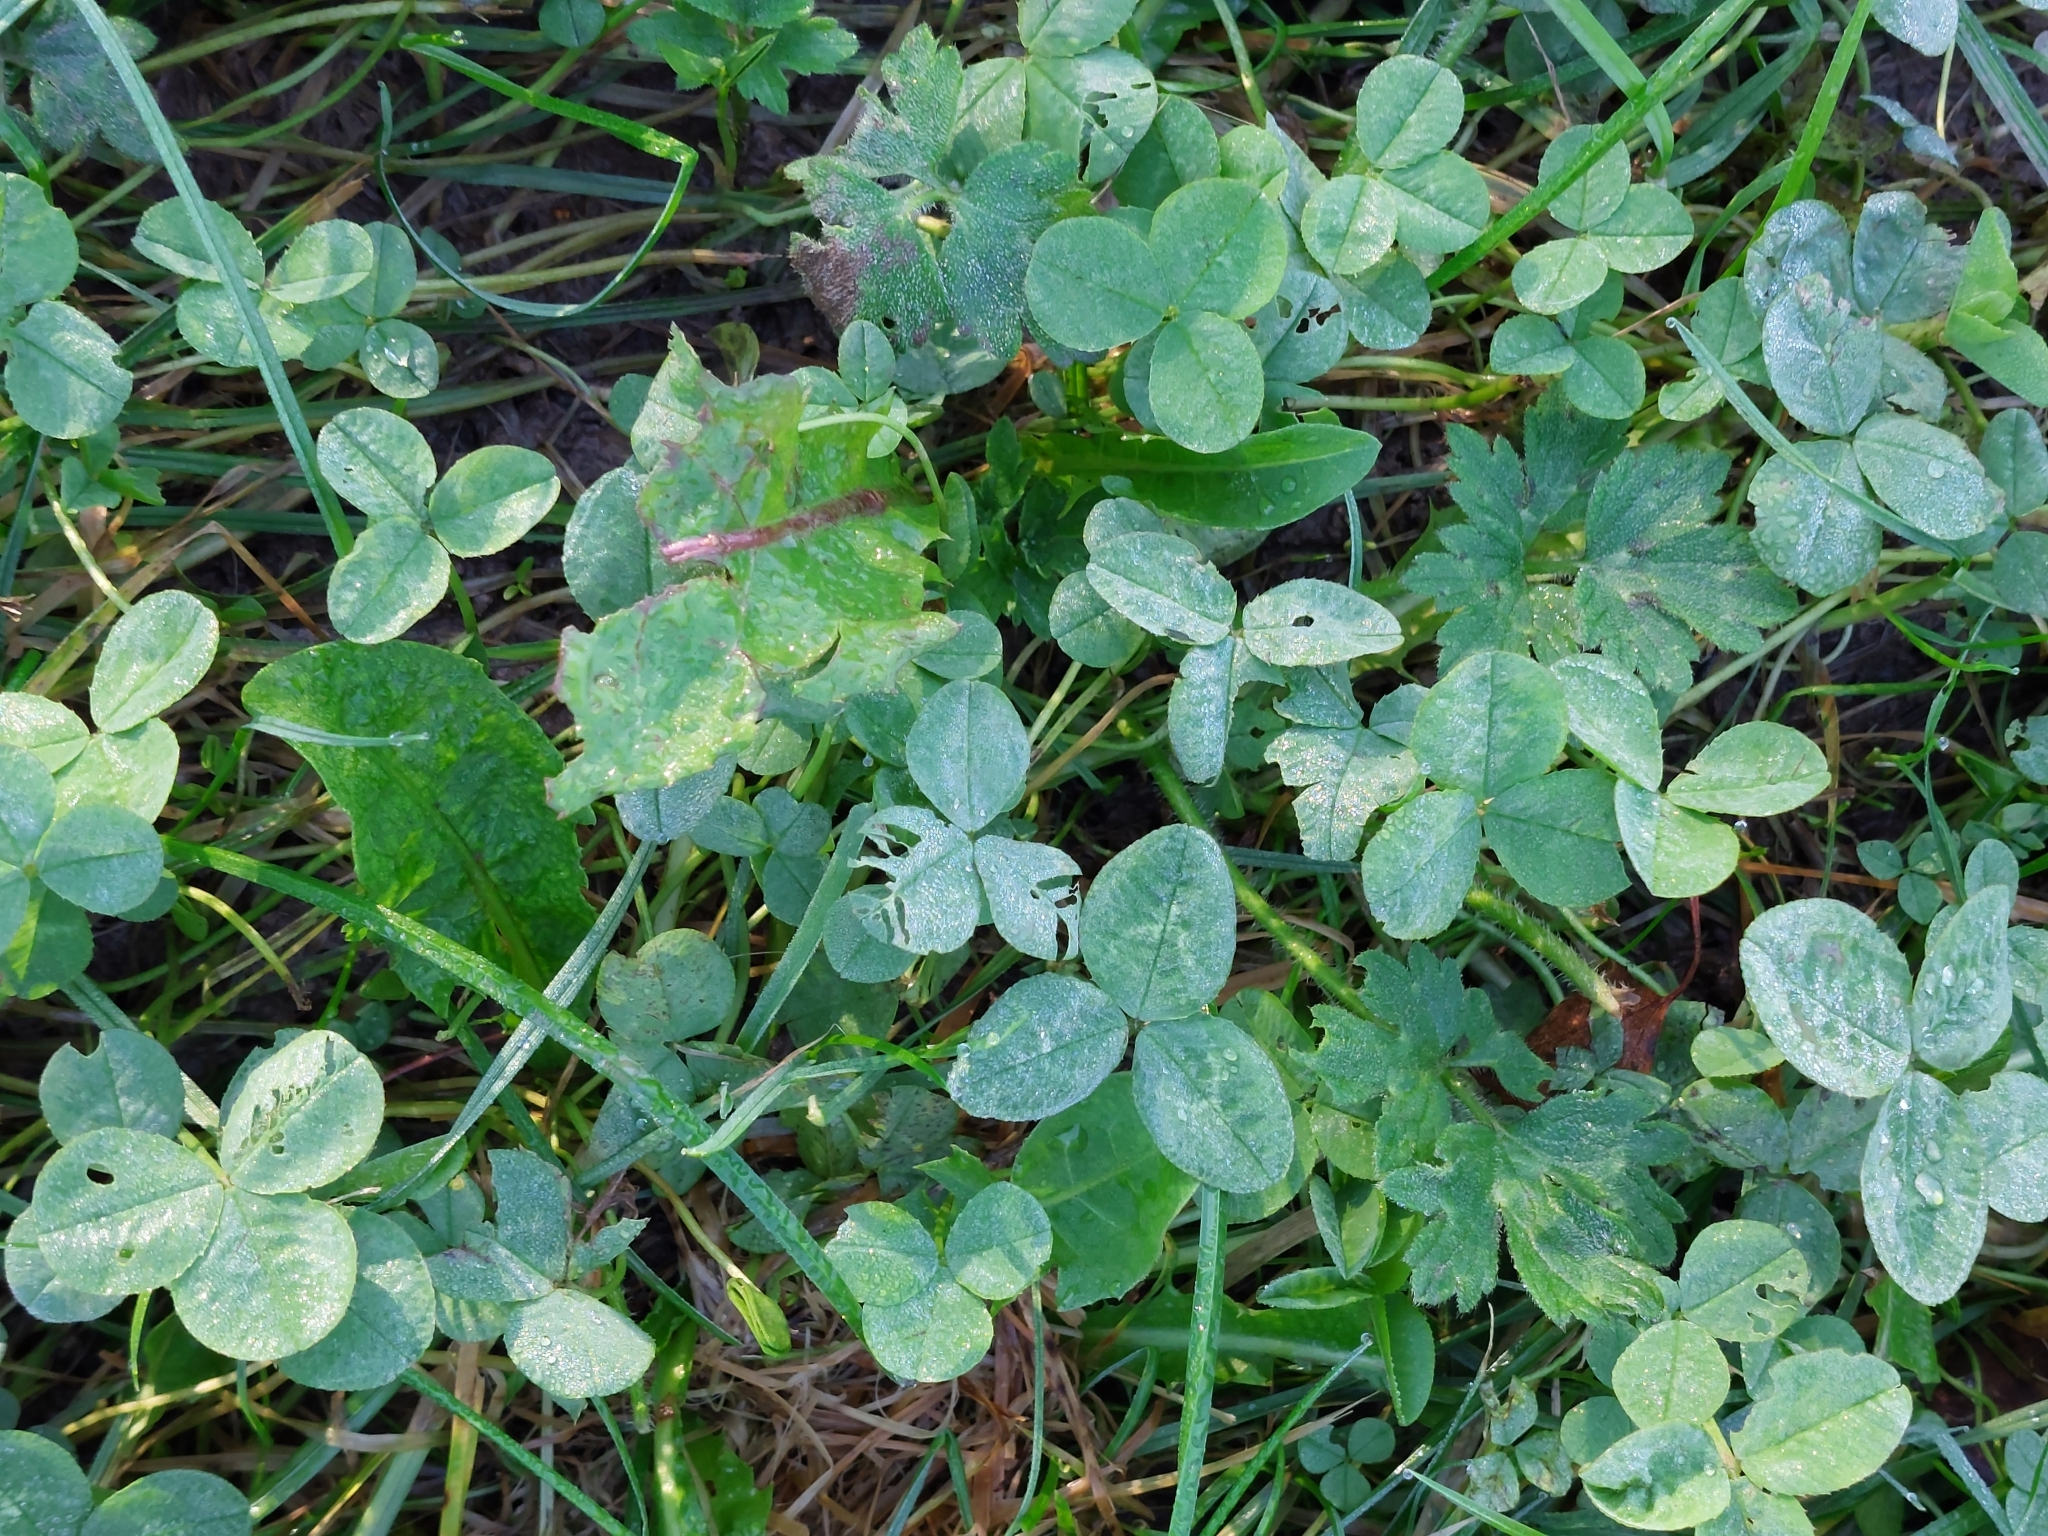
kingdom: Plantae
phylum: Tracheophyta
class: Magnoliopsida
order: Fabales
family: Fabaceae
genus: Trifolium
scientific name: Trifolium repens
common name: White clover
